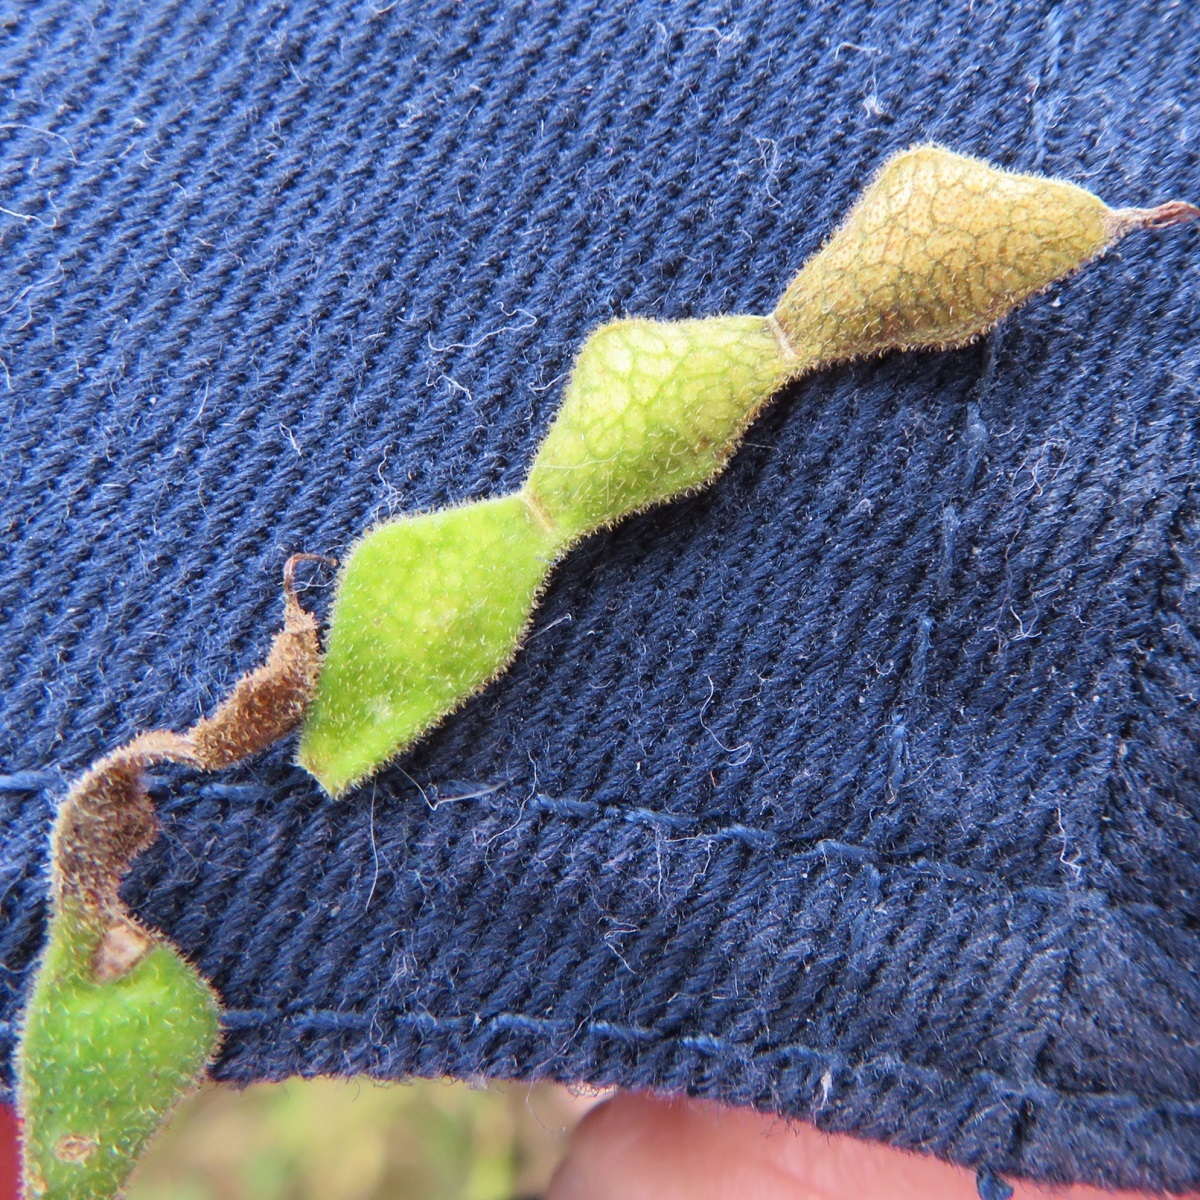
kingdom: Plantae
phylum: Tracheophyta
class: Magnoliopsida
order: Fabales
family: Fabaceae
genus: Desmodium
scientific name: Desmodium
